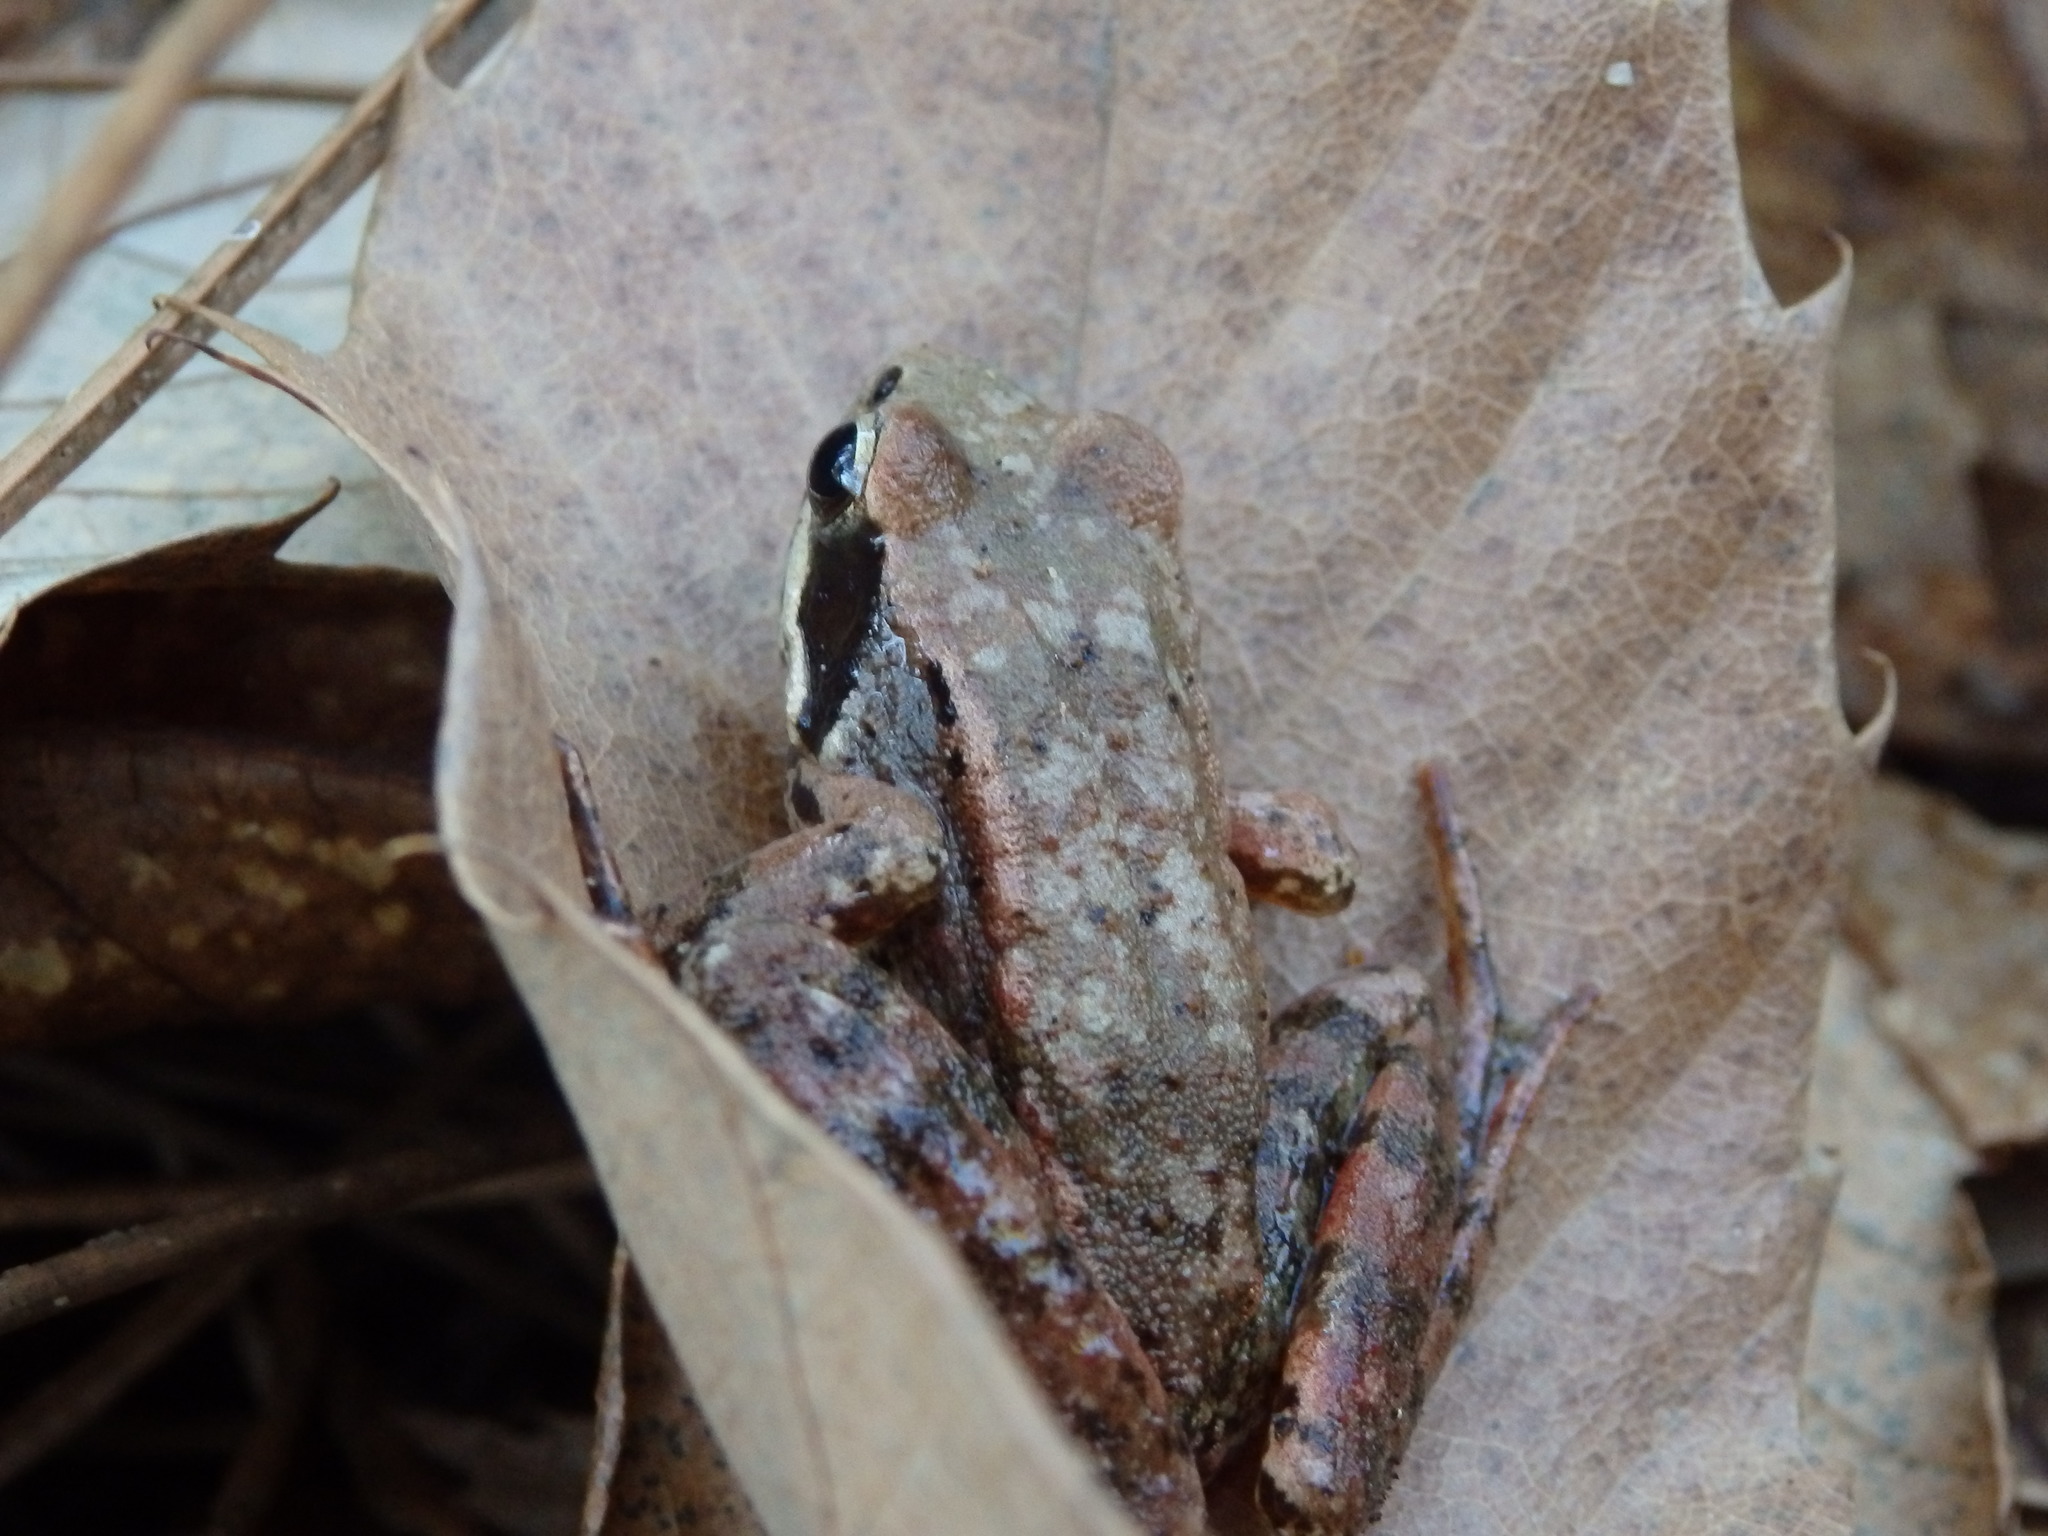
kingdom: Animalia
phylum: Chordata
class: Amphibia
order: Anura
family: Ranidae
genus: Rana
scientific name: Rana iberica
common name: Iberian frog
